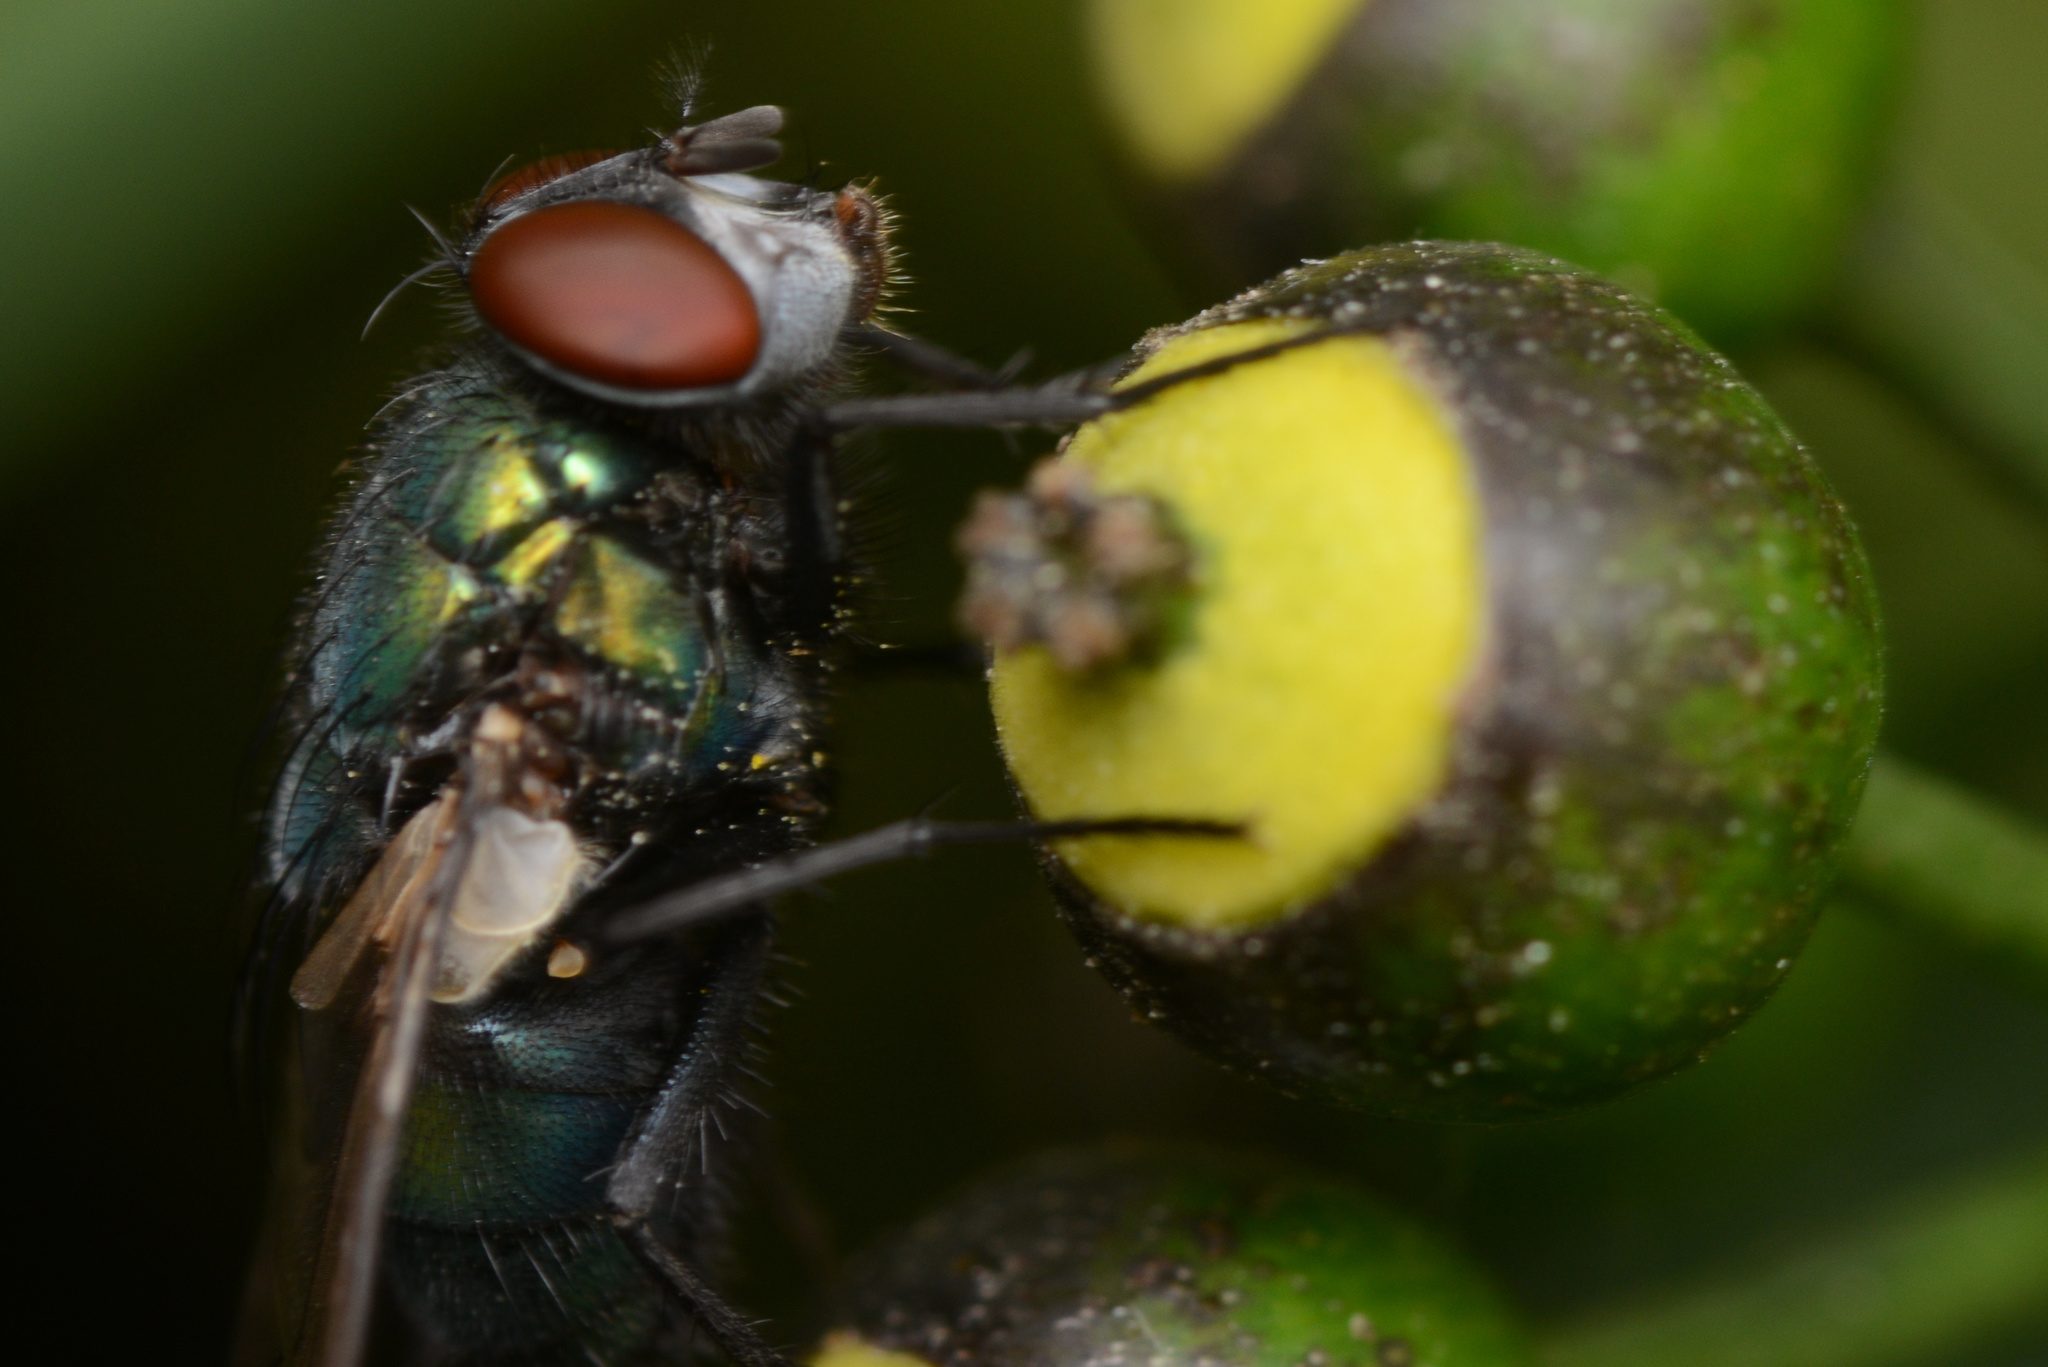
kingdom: Animalia
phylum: Arthropoda
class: Insecta
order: Diptera
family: Calliphoridae
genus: Lucilia
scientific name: Lucilia sericata
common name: Blow fly
